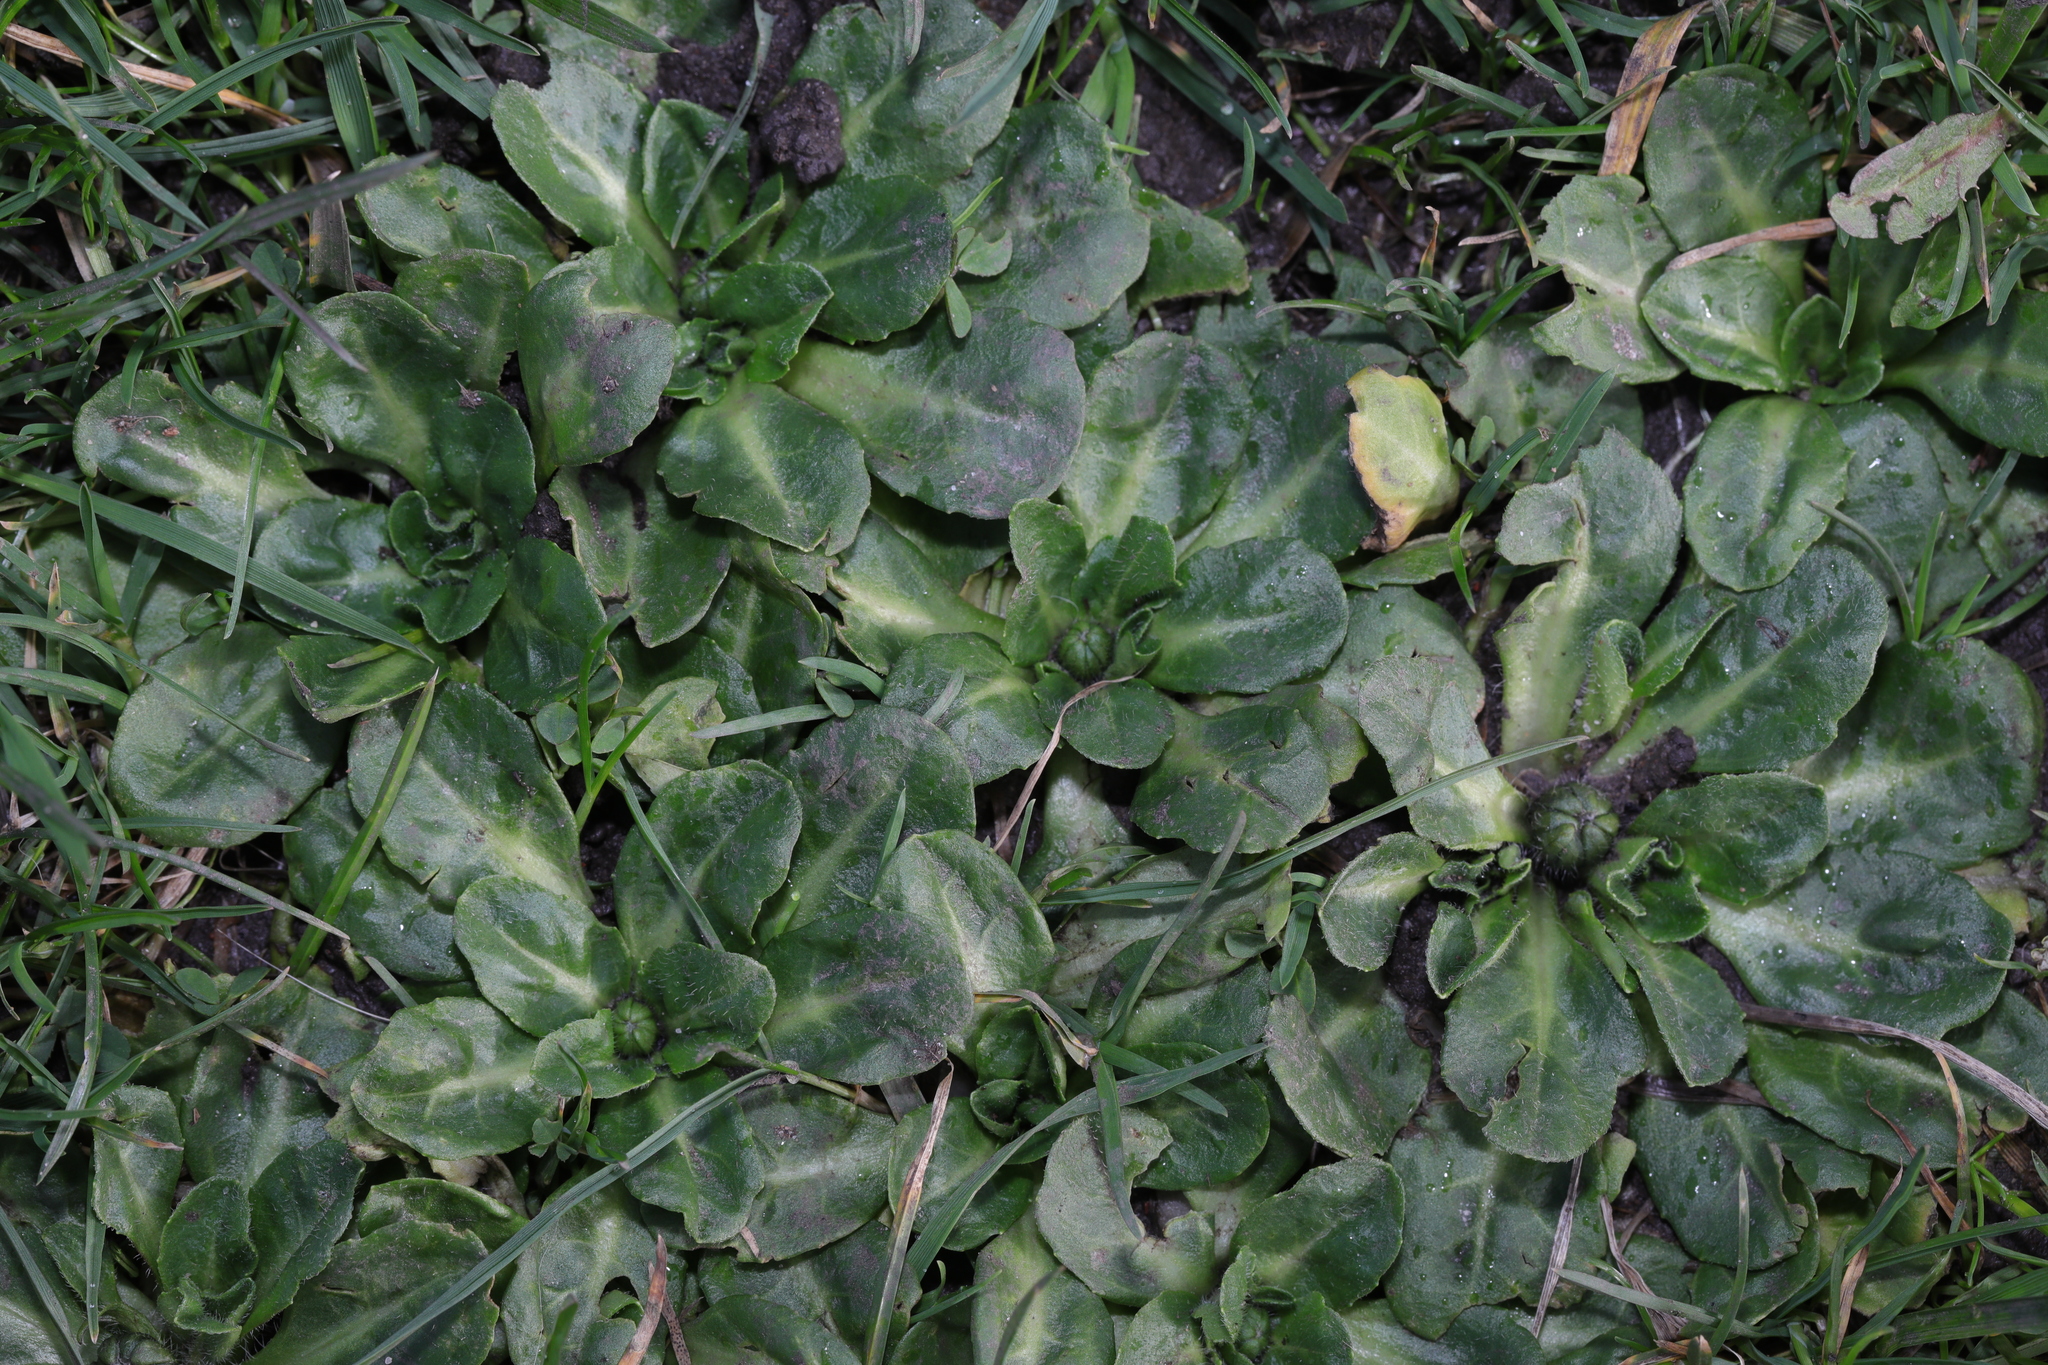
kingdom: Plantae
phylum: Tracheophyta
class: Magnoliopsida
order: Asterales
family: Asteraceae
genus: Bellis
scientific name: Bellis perennis
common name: Lawndaisy
